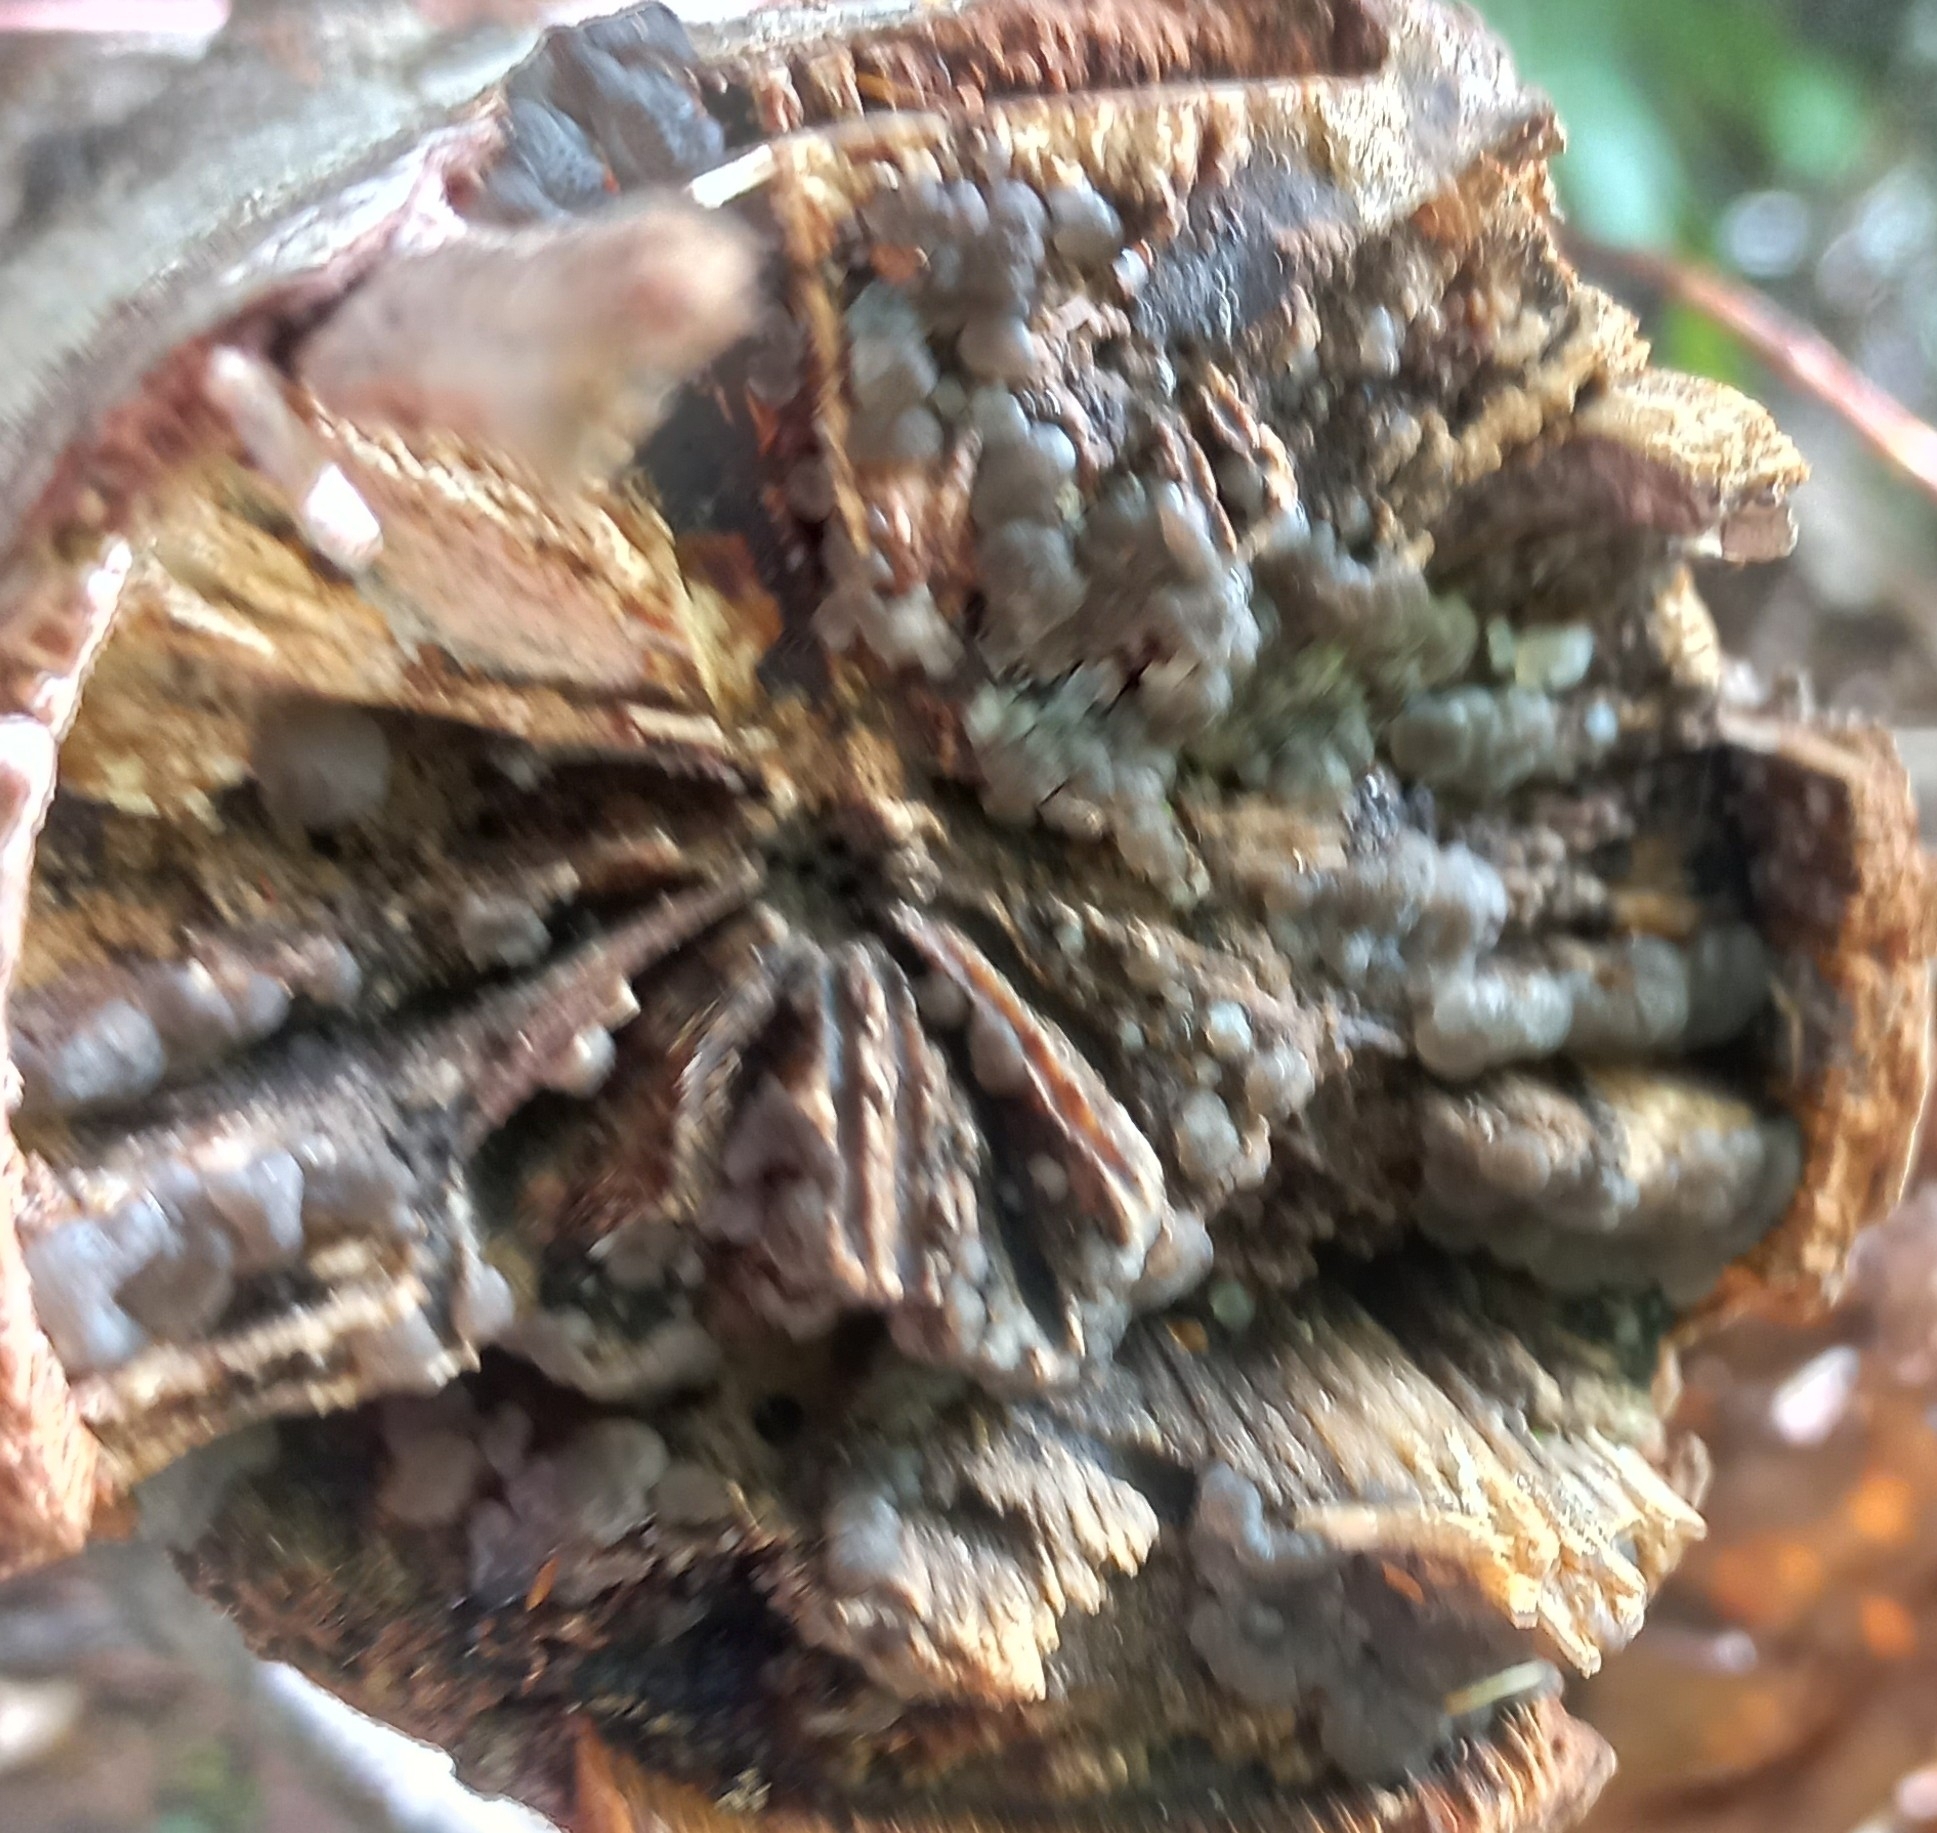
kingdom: Fungi
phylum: Basidiomycota
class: Agaricomycetes
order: Auriculariales
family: Auriculariaceae
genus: Tremellochaete
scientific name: Tremellochaete
